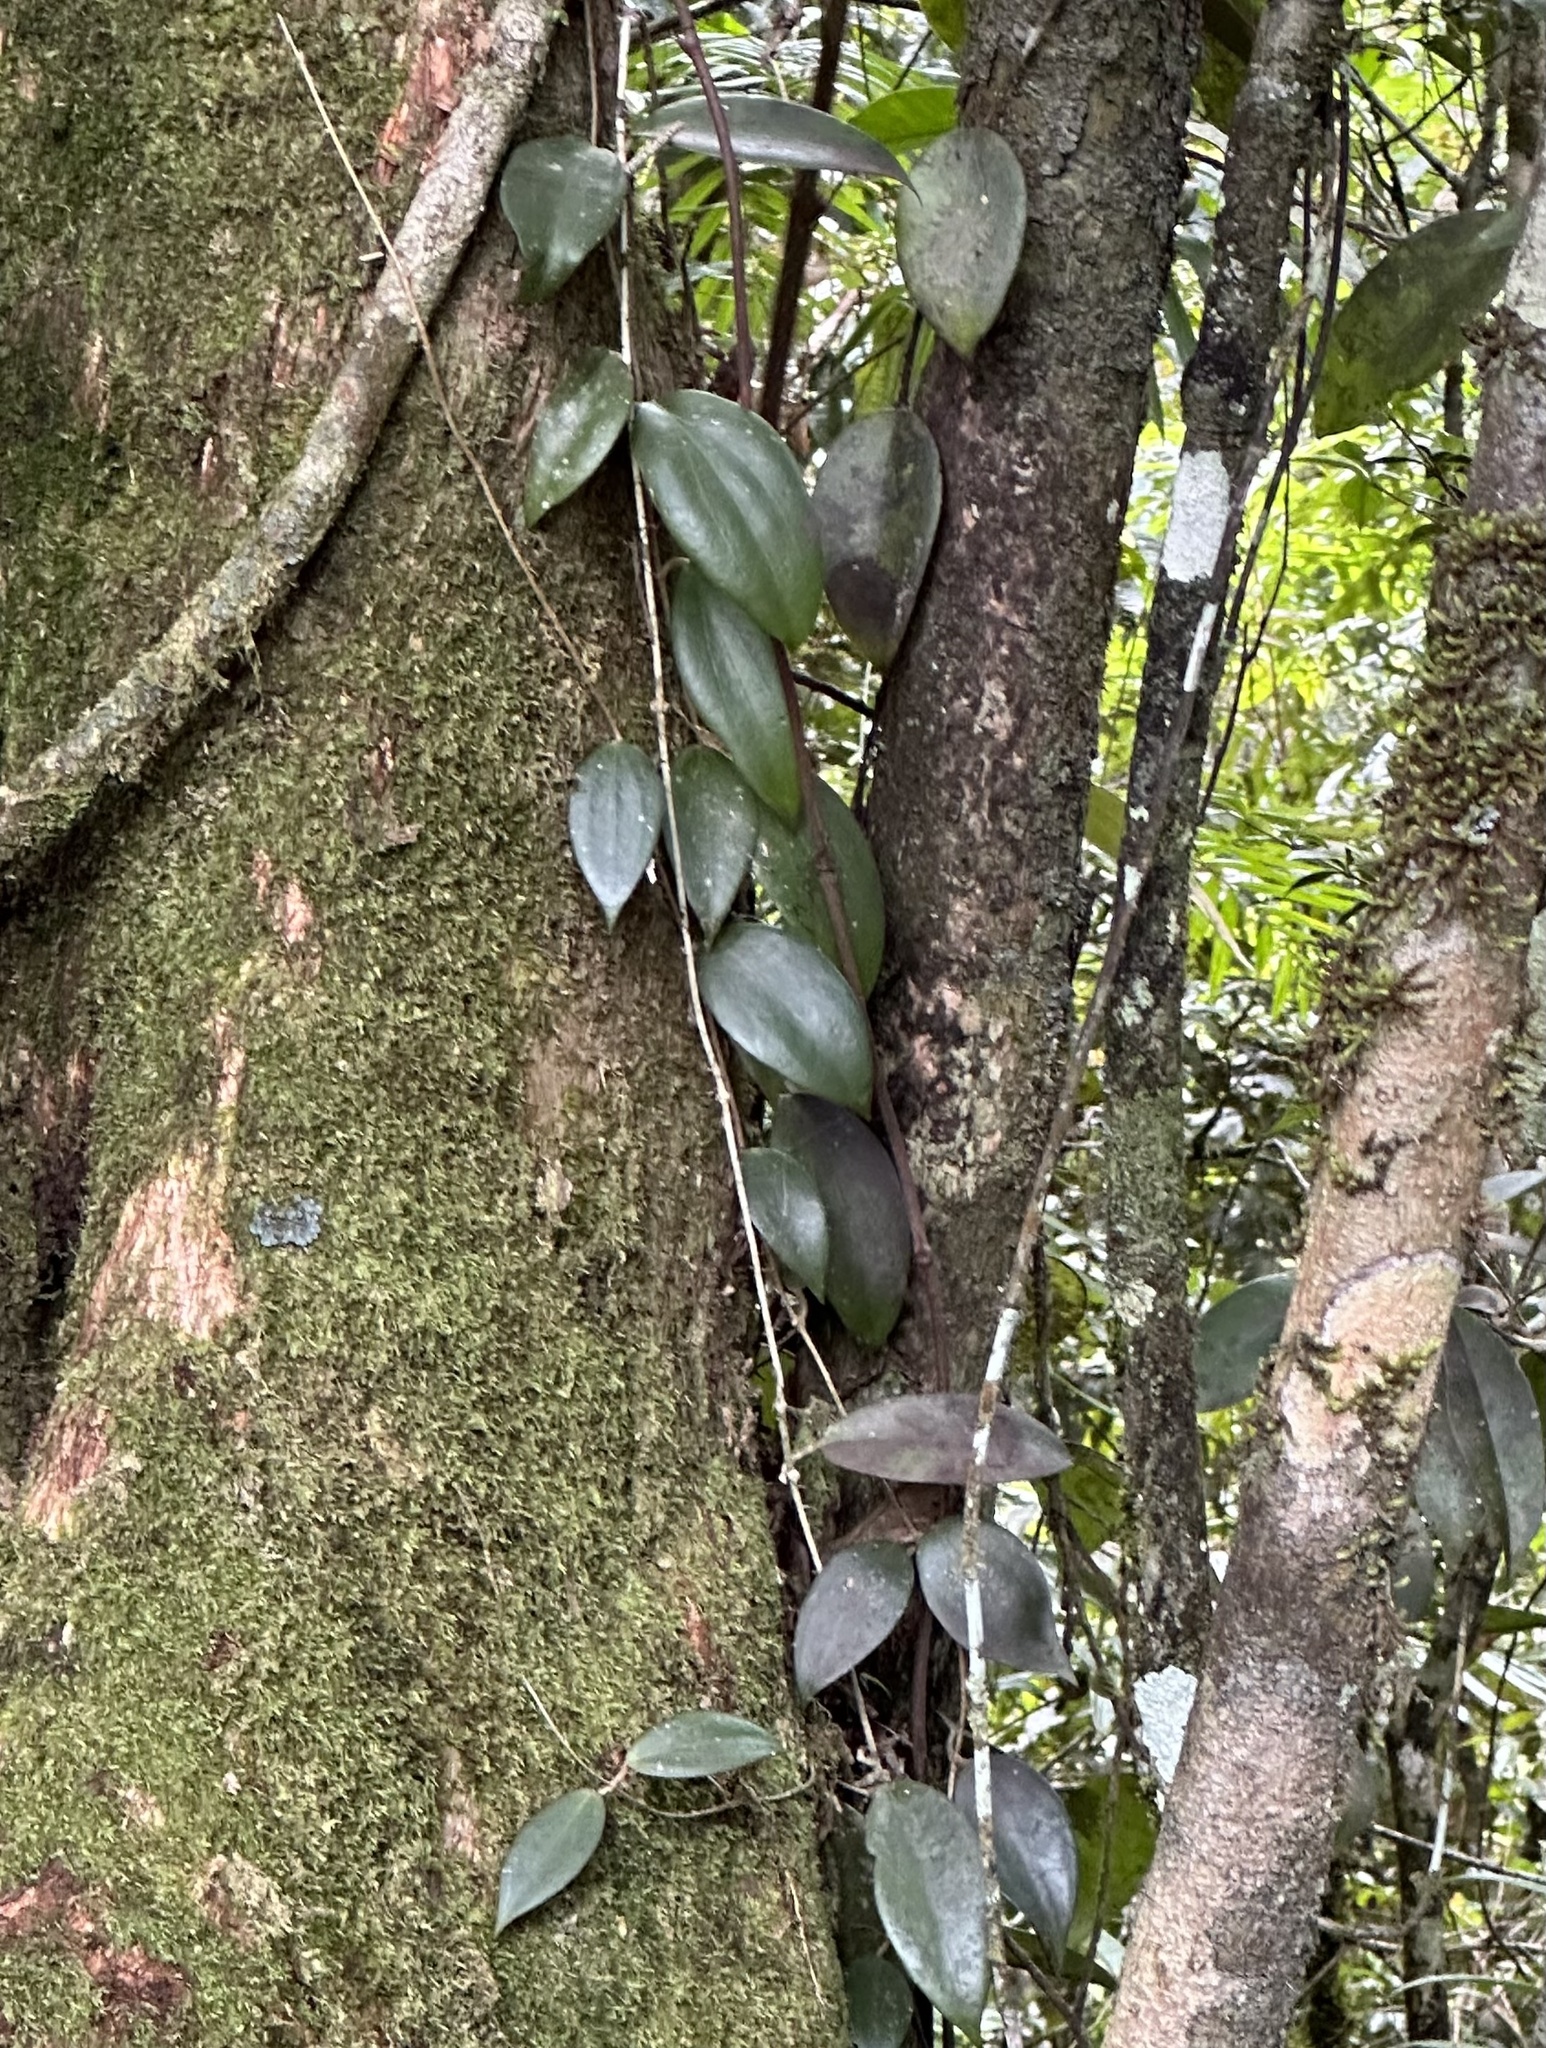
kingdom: Plantae
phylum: Tracheophyta
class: Magnoliopsida
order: Gentianales
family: Apocynaceae
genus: Hoya
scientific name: Hoya pottsii
